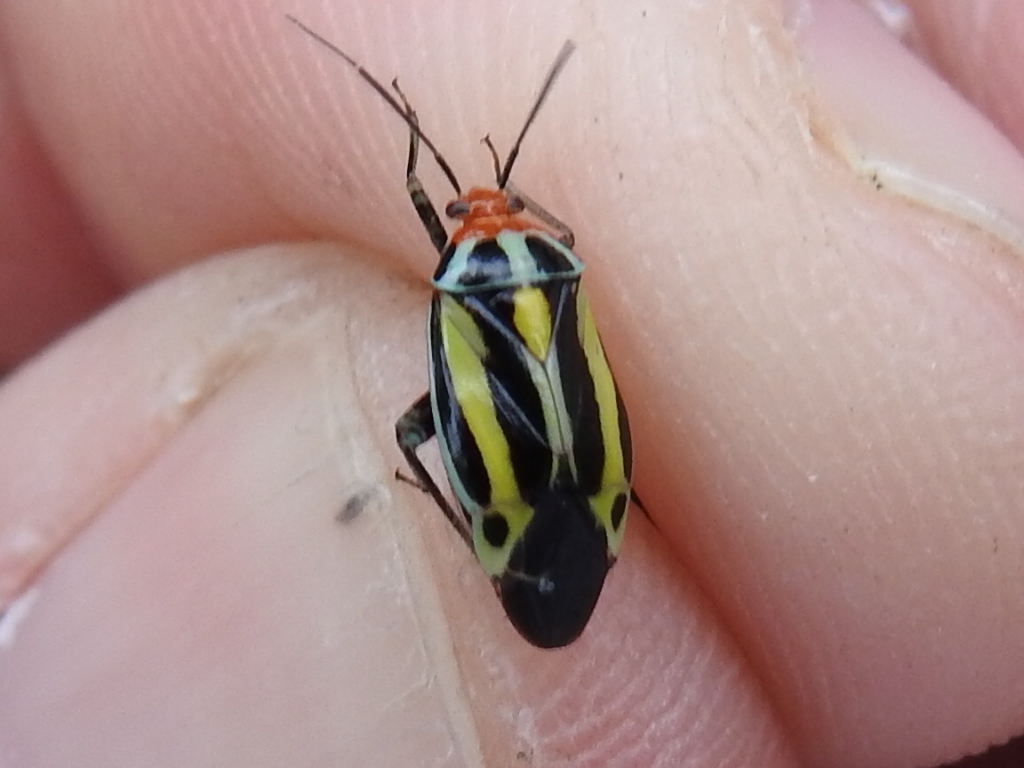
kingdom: Animalia
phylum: Arthropoda
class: Insecta
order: Hemiptera
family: Miridae
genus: Poecilocapsus
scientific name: Poecilocapsus lineatus
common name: Four-lined plant bug
